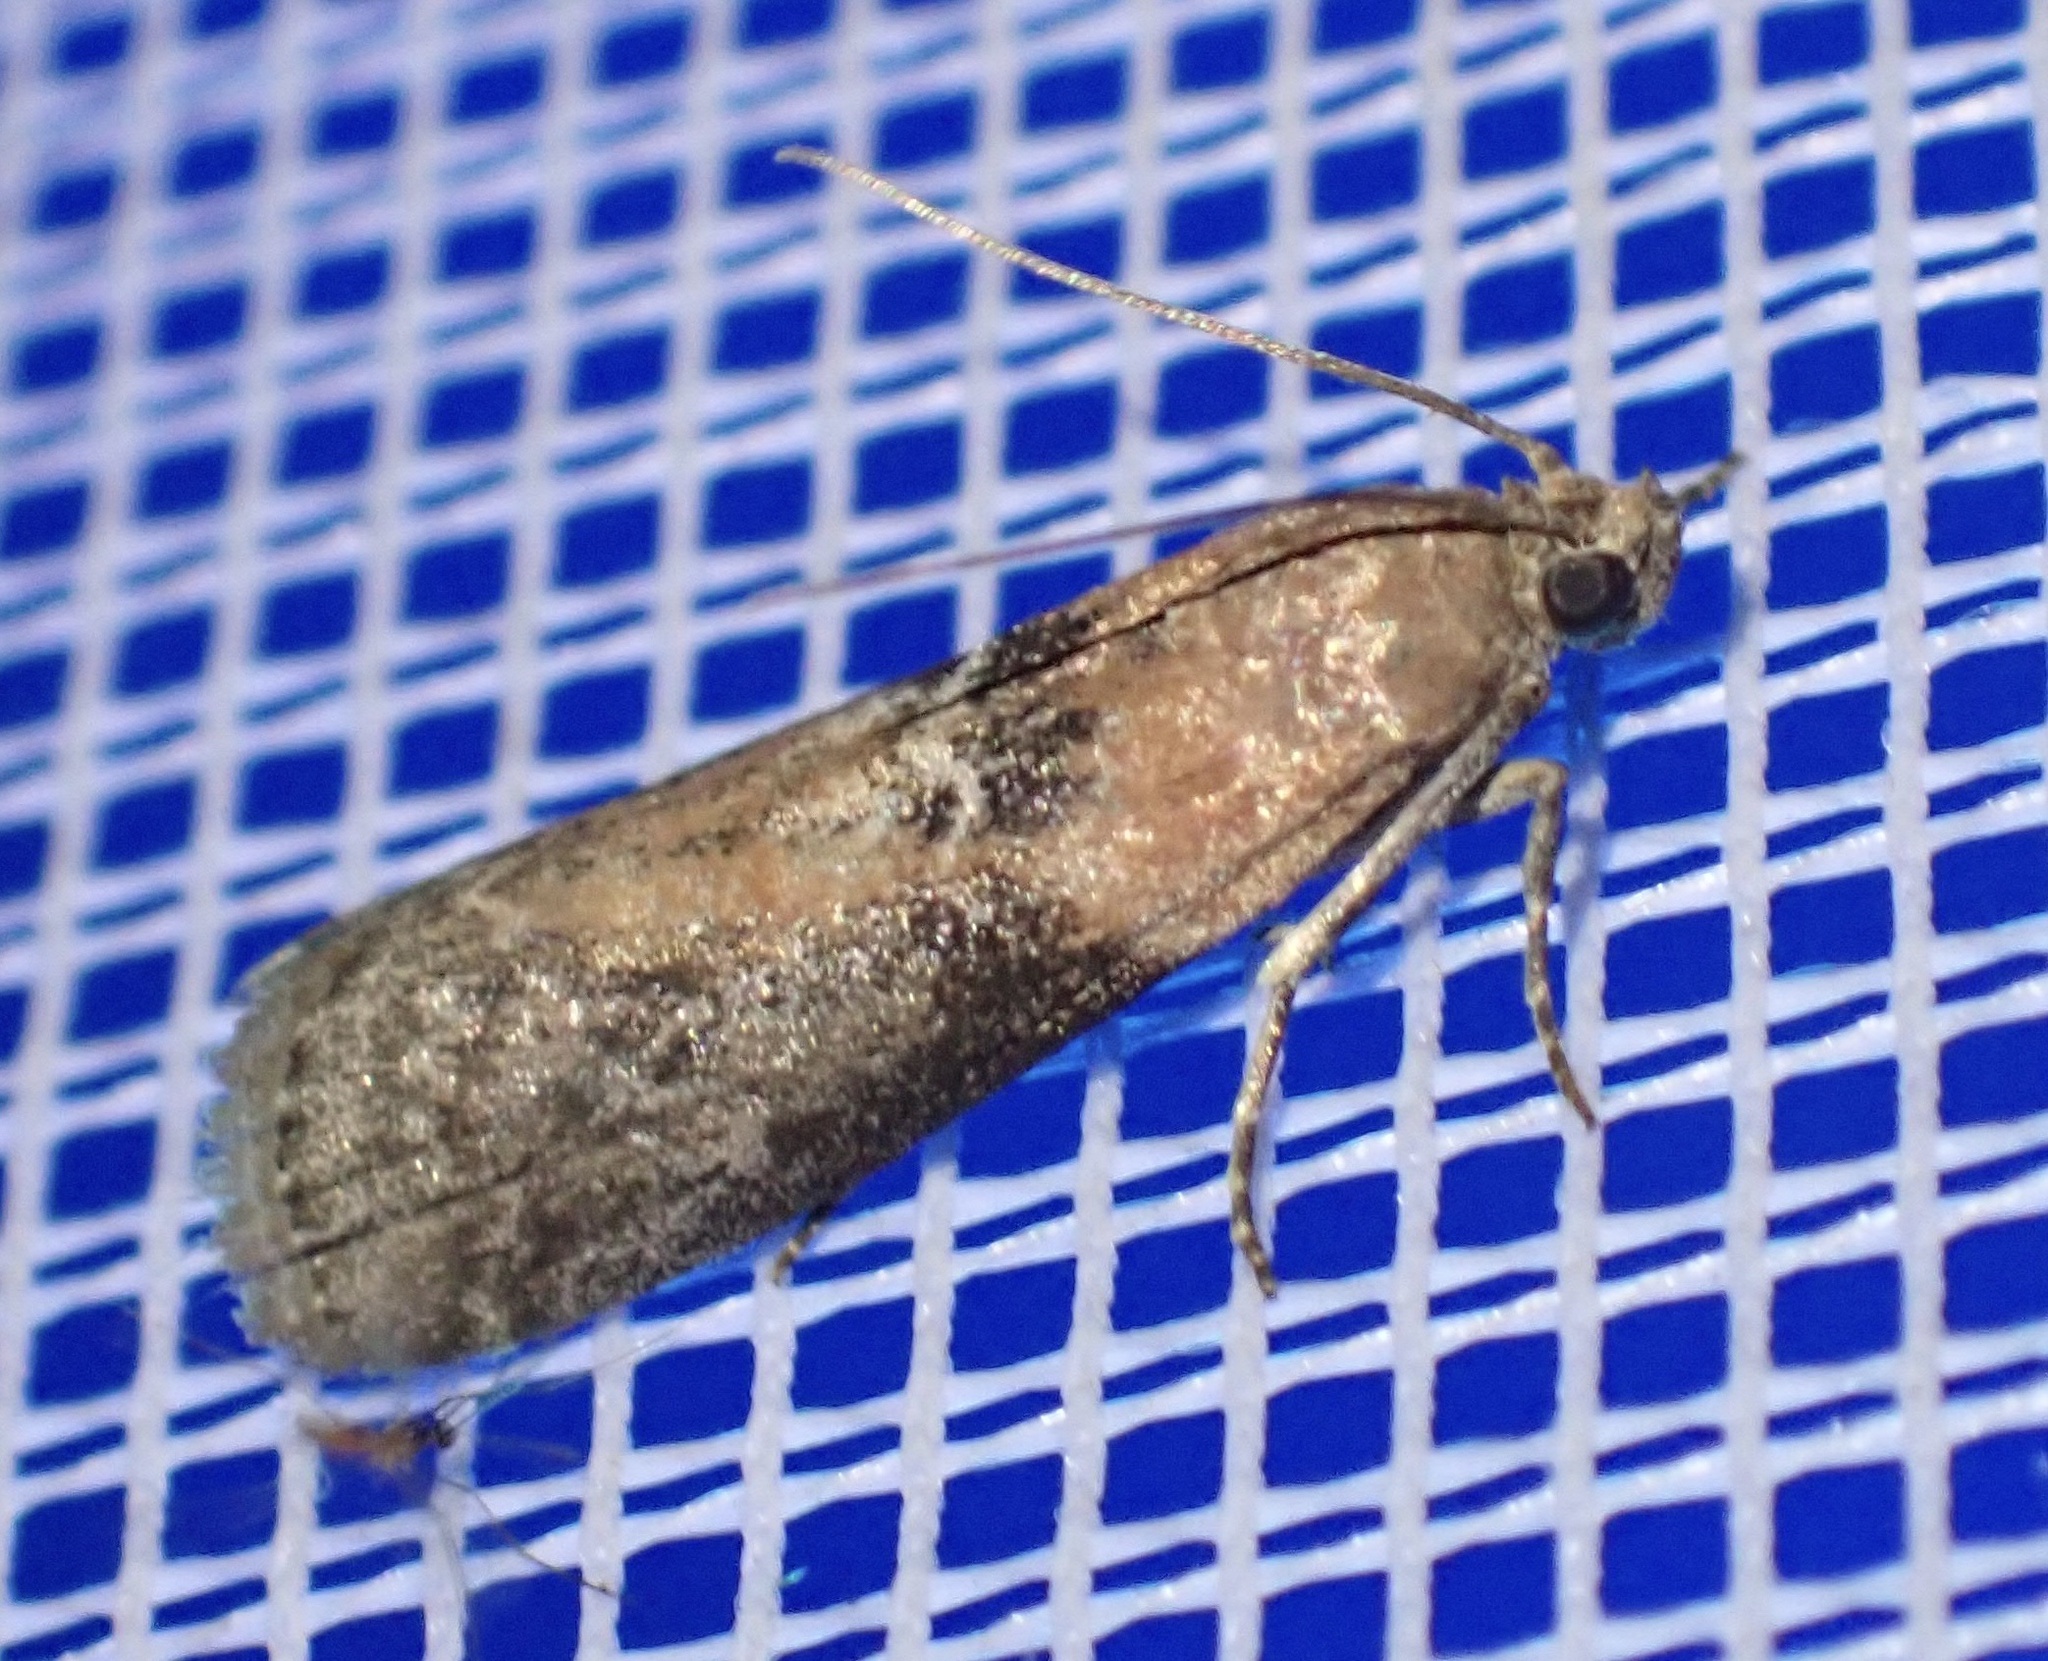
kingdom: Animalia
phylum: Arthropoda
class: Insecta
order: Lepidoptera
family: Pyralidae
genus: Sciota
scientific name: Sciota adelphella
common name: Willow knot-horn
